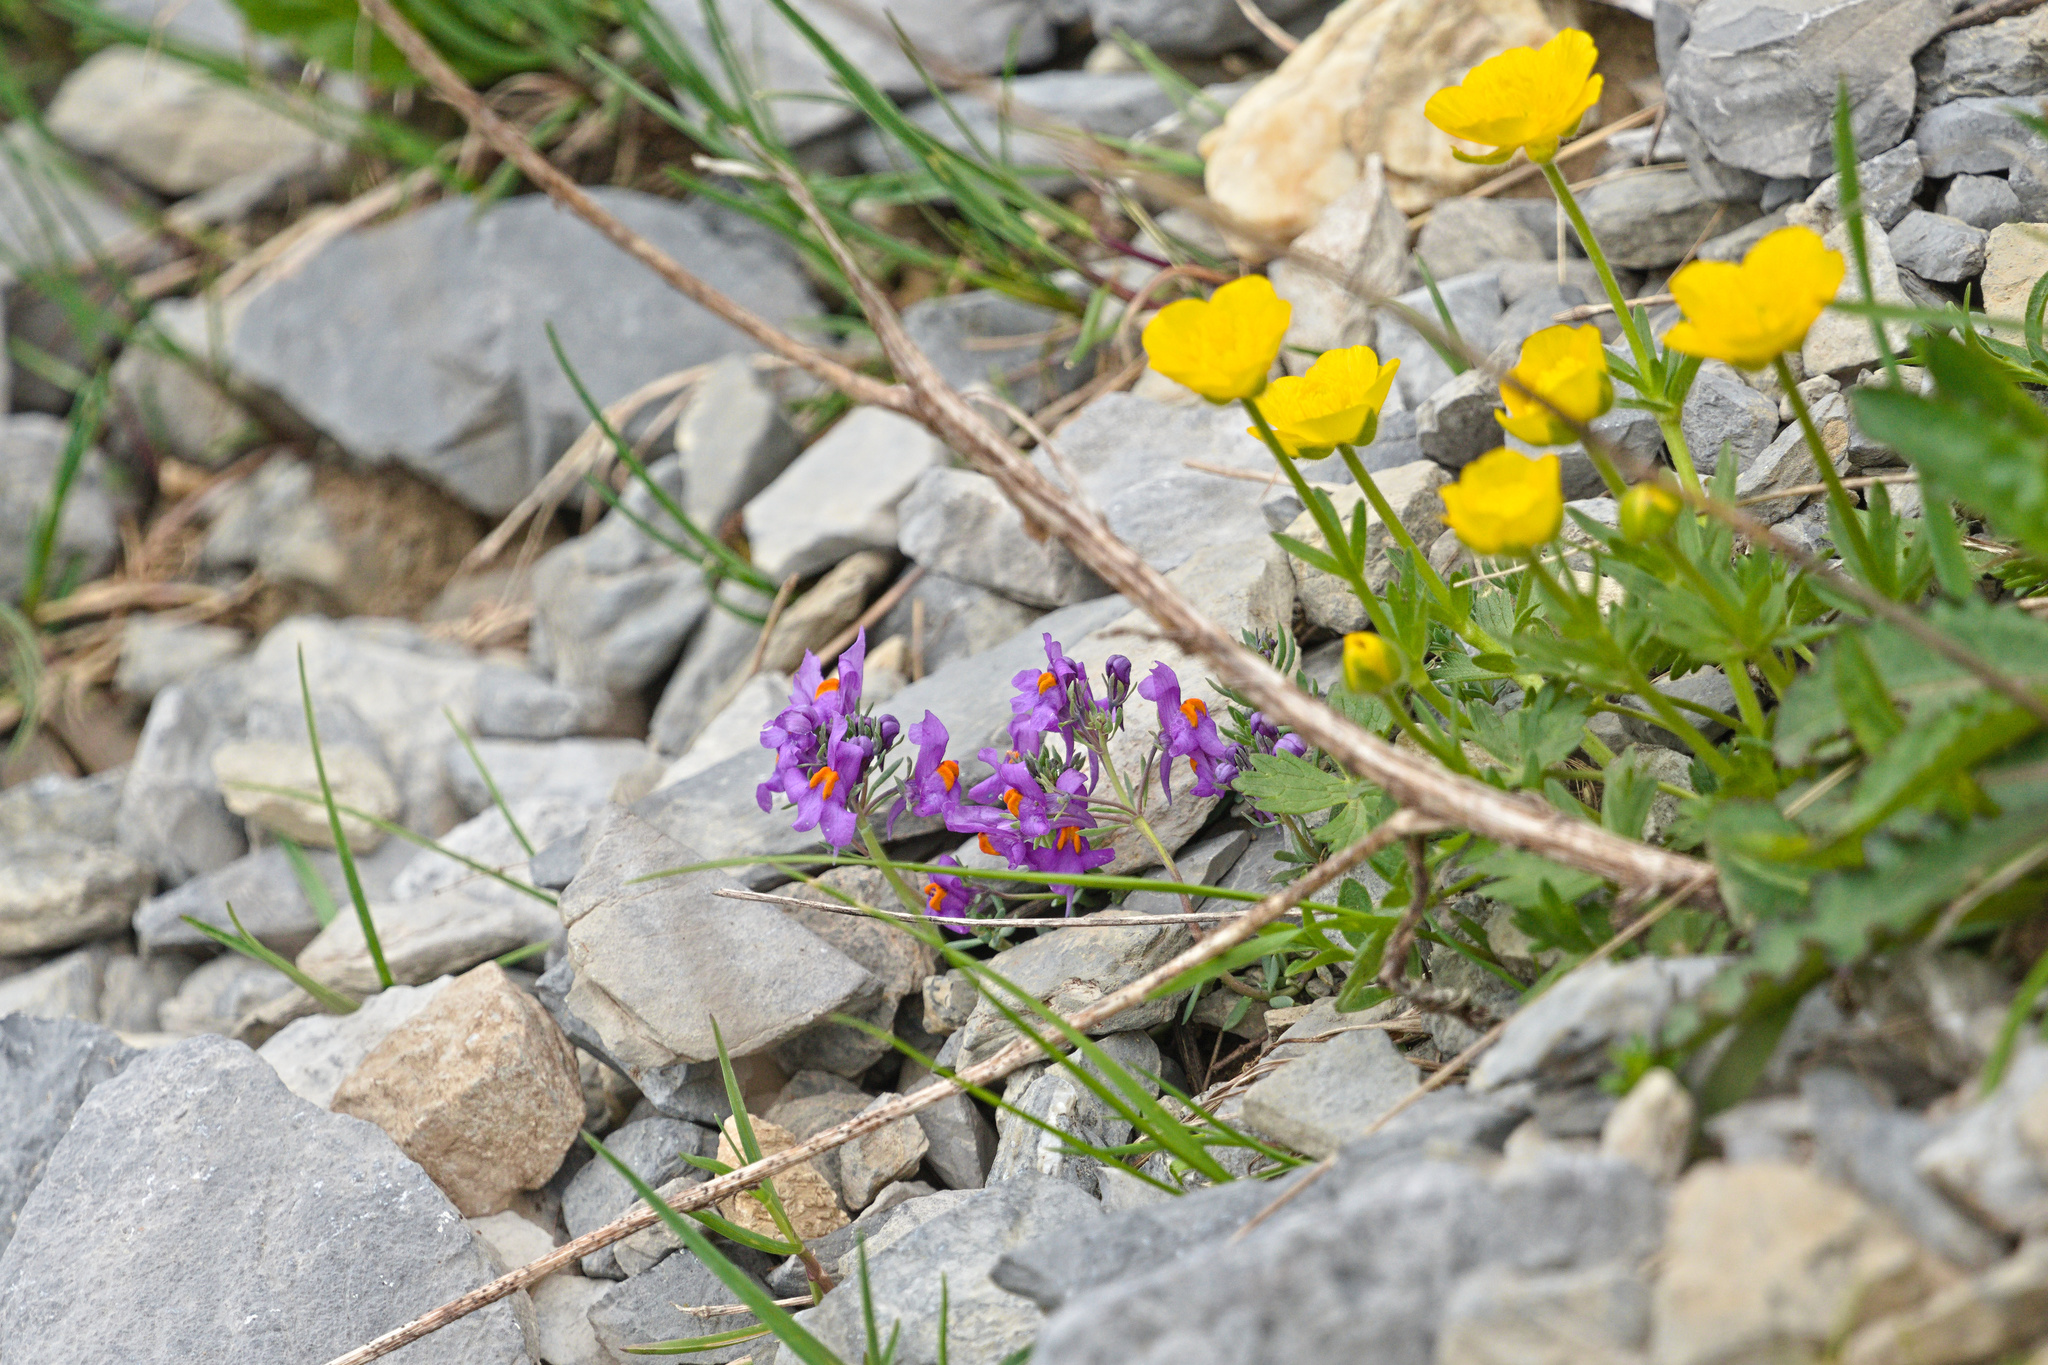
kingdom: Plantae
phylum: Tracheophyta
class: Magnoliopsida
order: Lamiales
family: Plantaginaceae
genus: Linaria
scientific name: Linaria alpina
